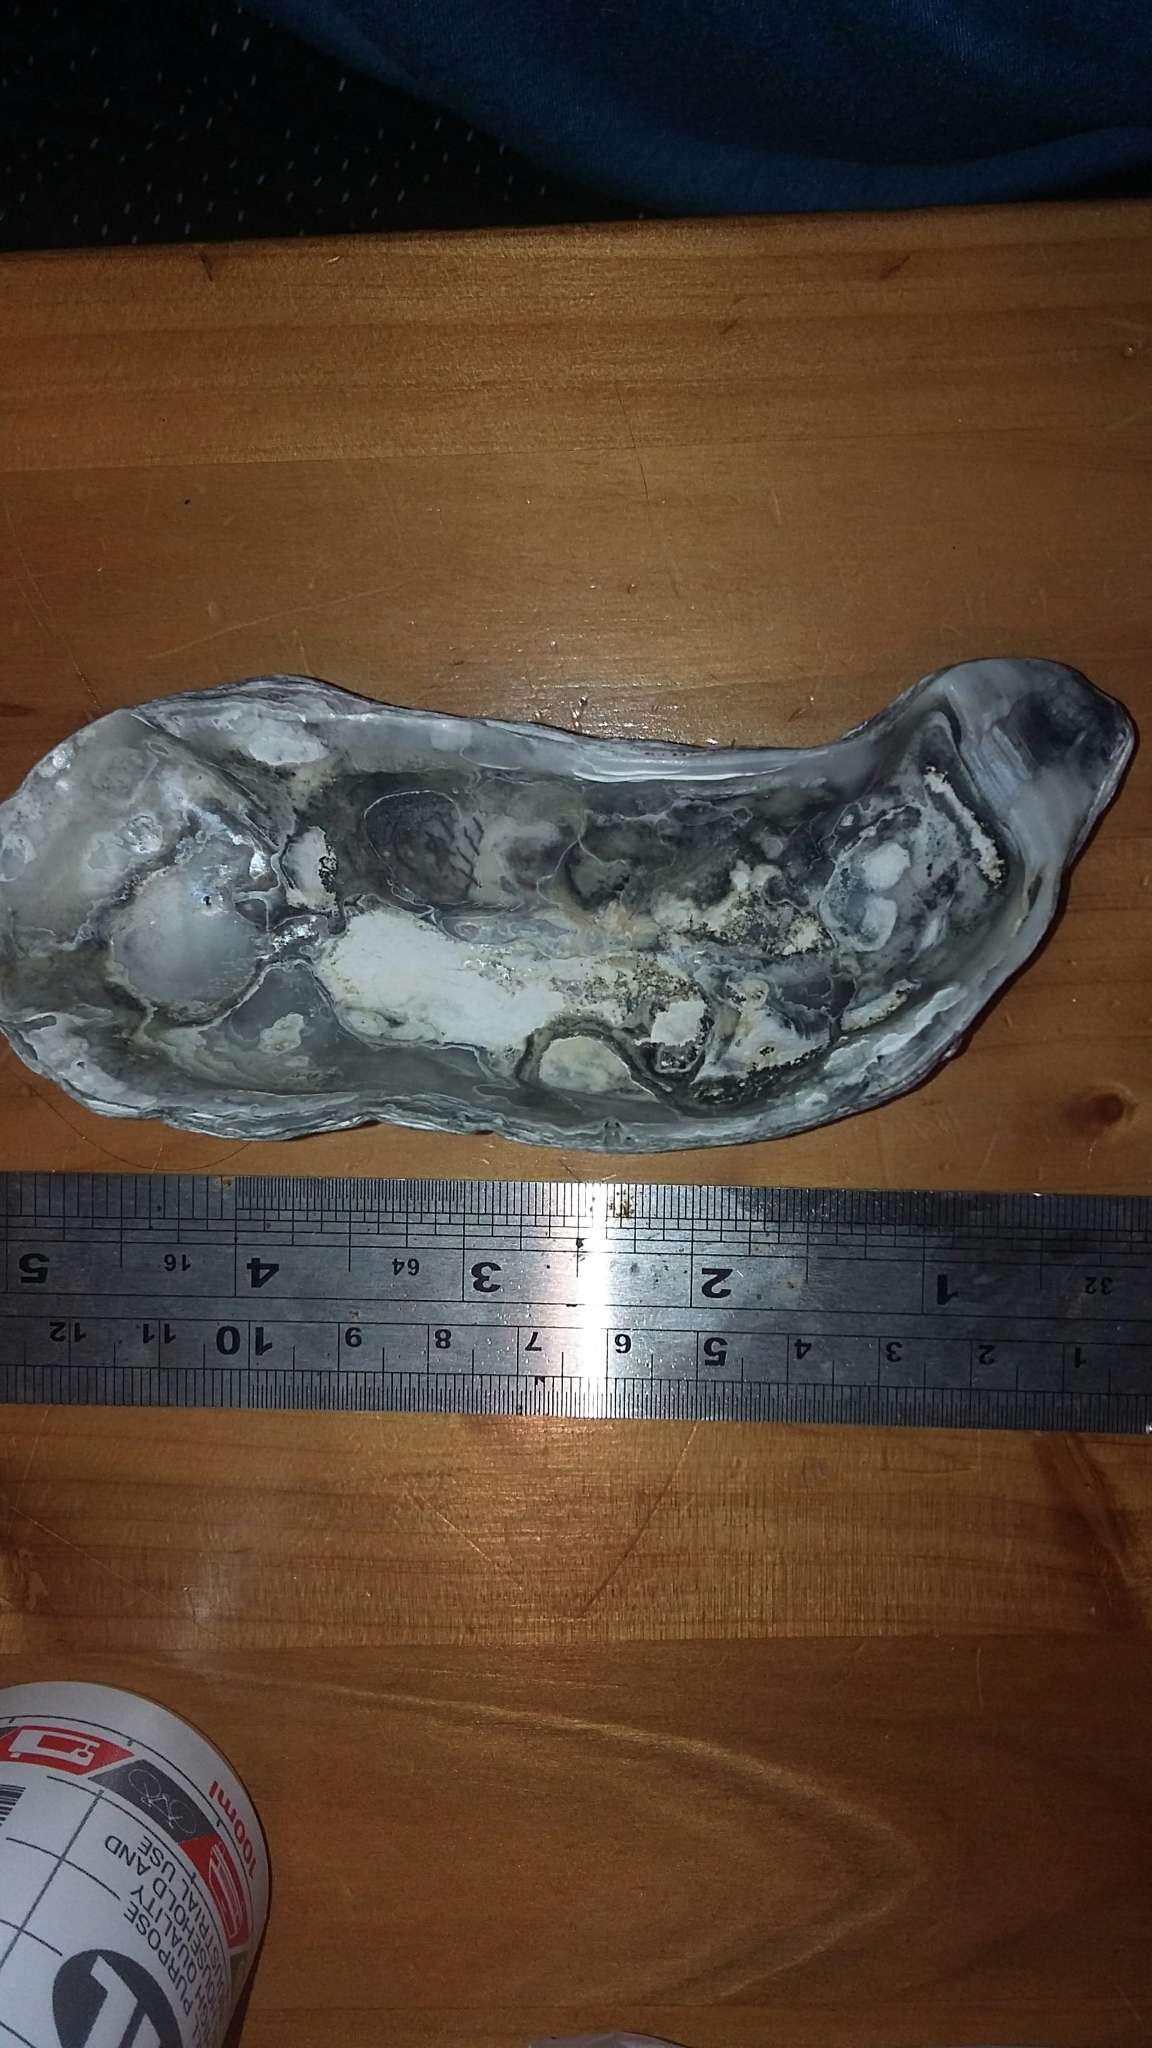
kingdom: Animalia
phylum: Mollusca
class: Bivalvia
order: Ostreida
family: Ostreidae
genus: Magallana
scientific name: Magallana gigas
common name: Pacific oyster
